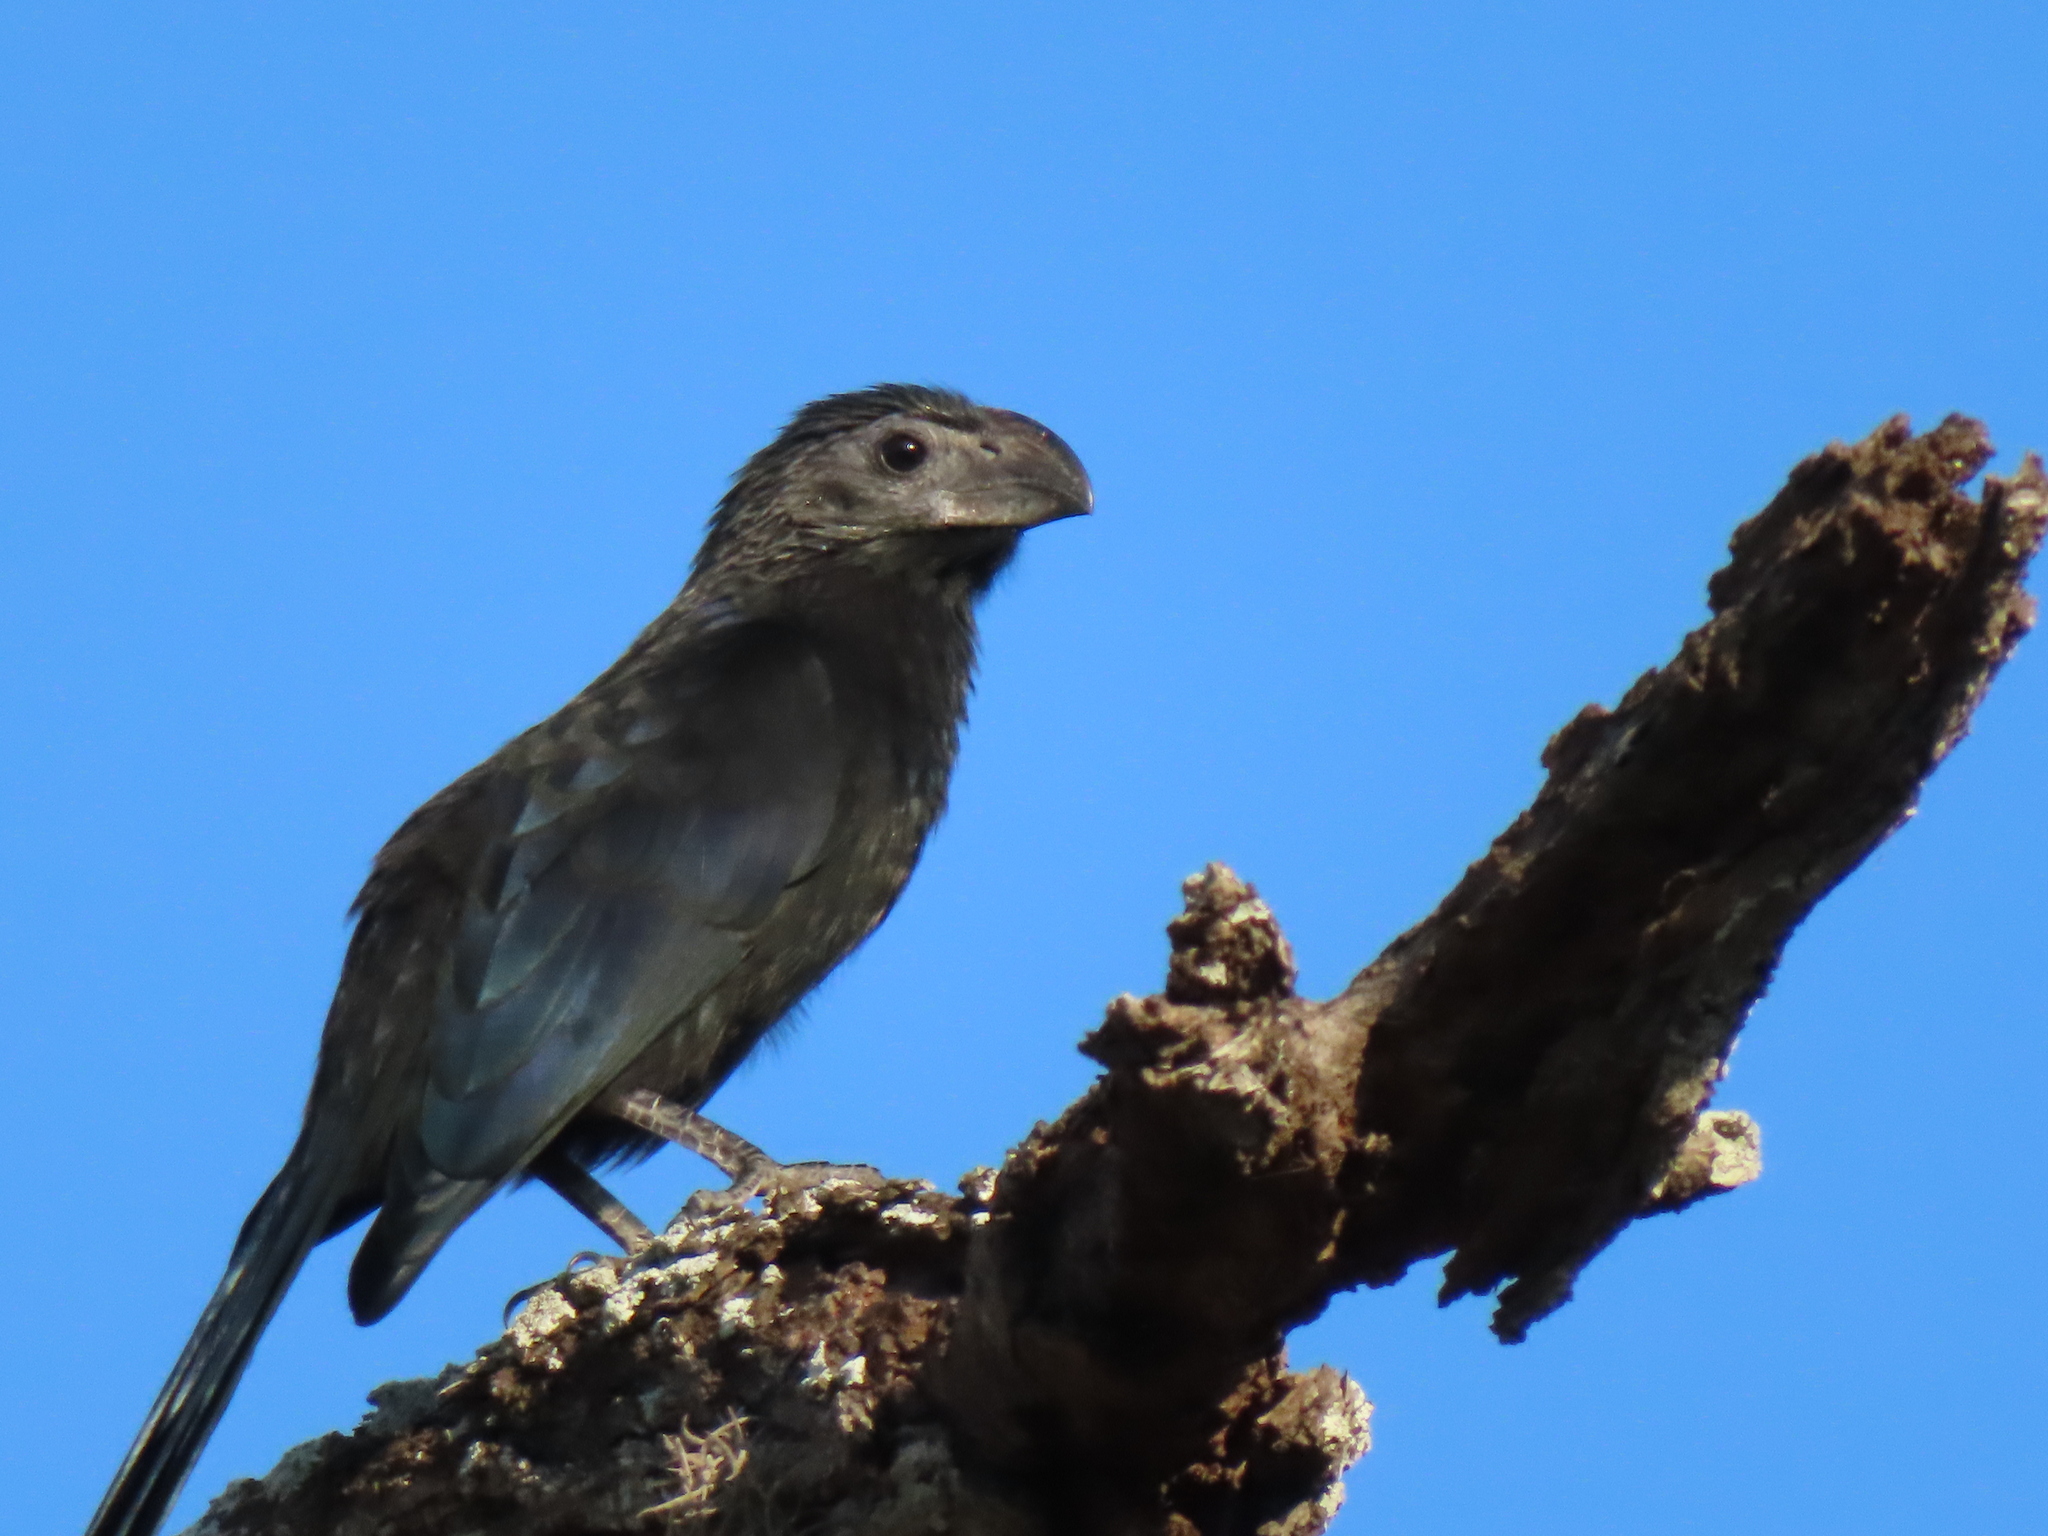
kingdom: Animalia
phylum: Chordata
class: Aves
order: Cuculiformes
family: Cuculidae
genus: Crotophaga
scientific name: Crotophaga sulcirostris
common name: Groove-billed ani
